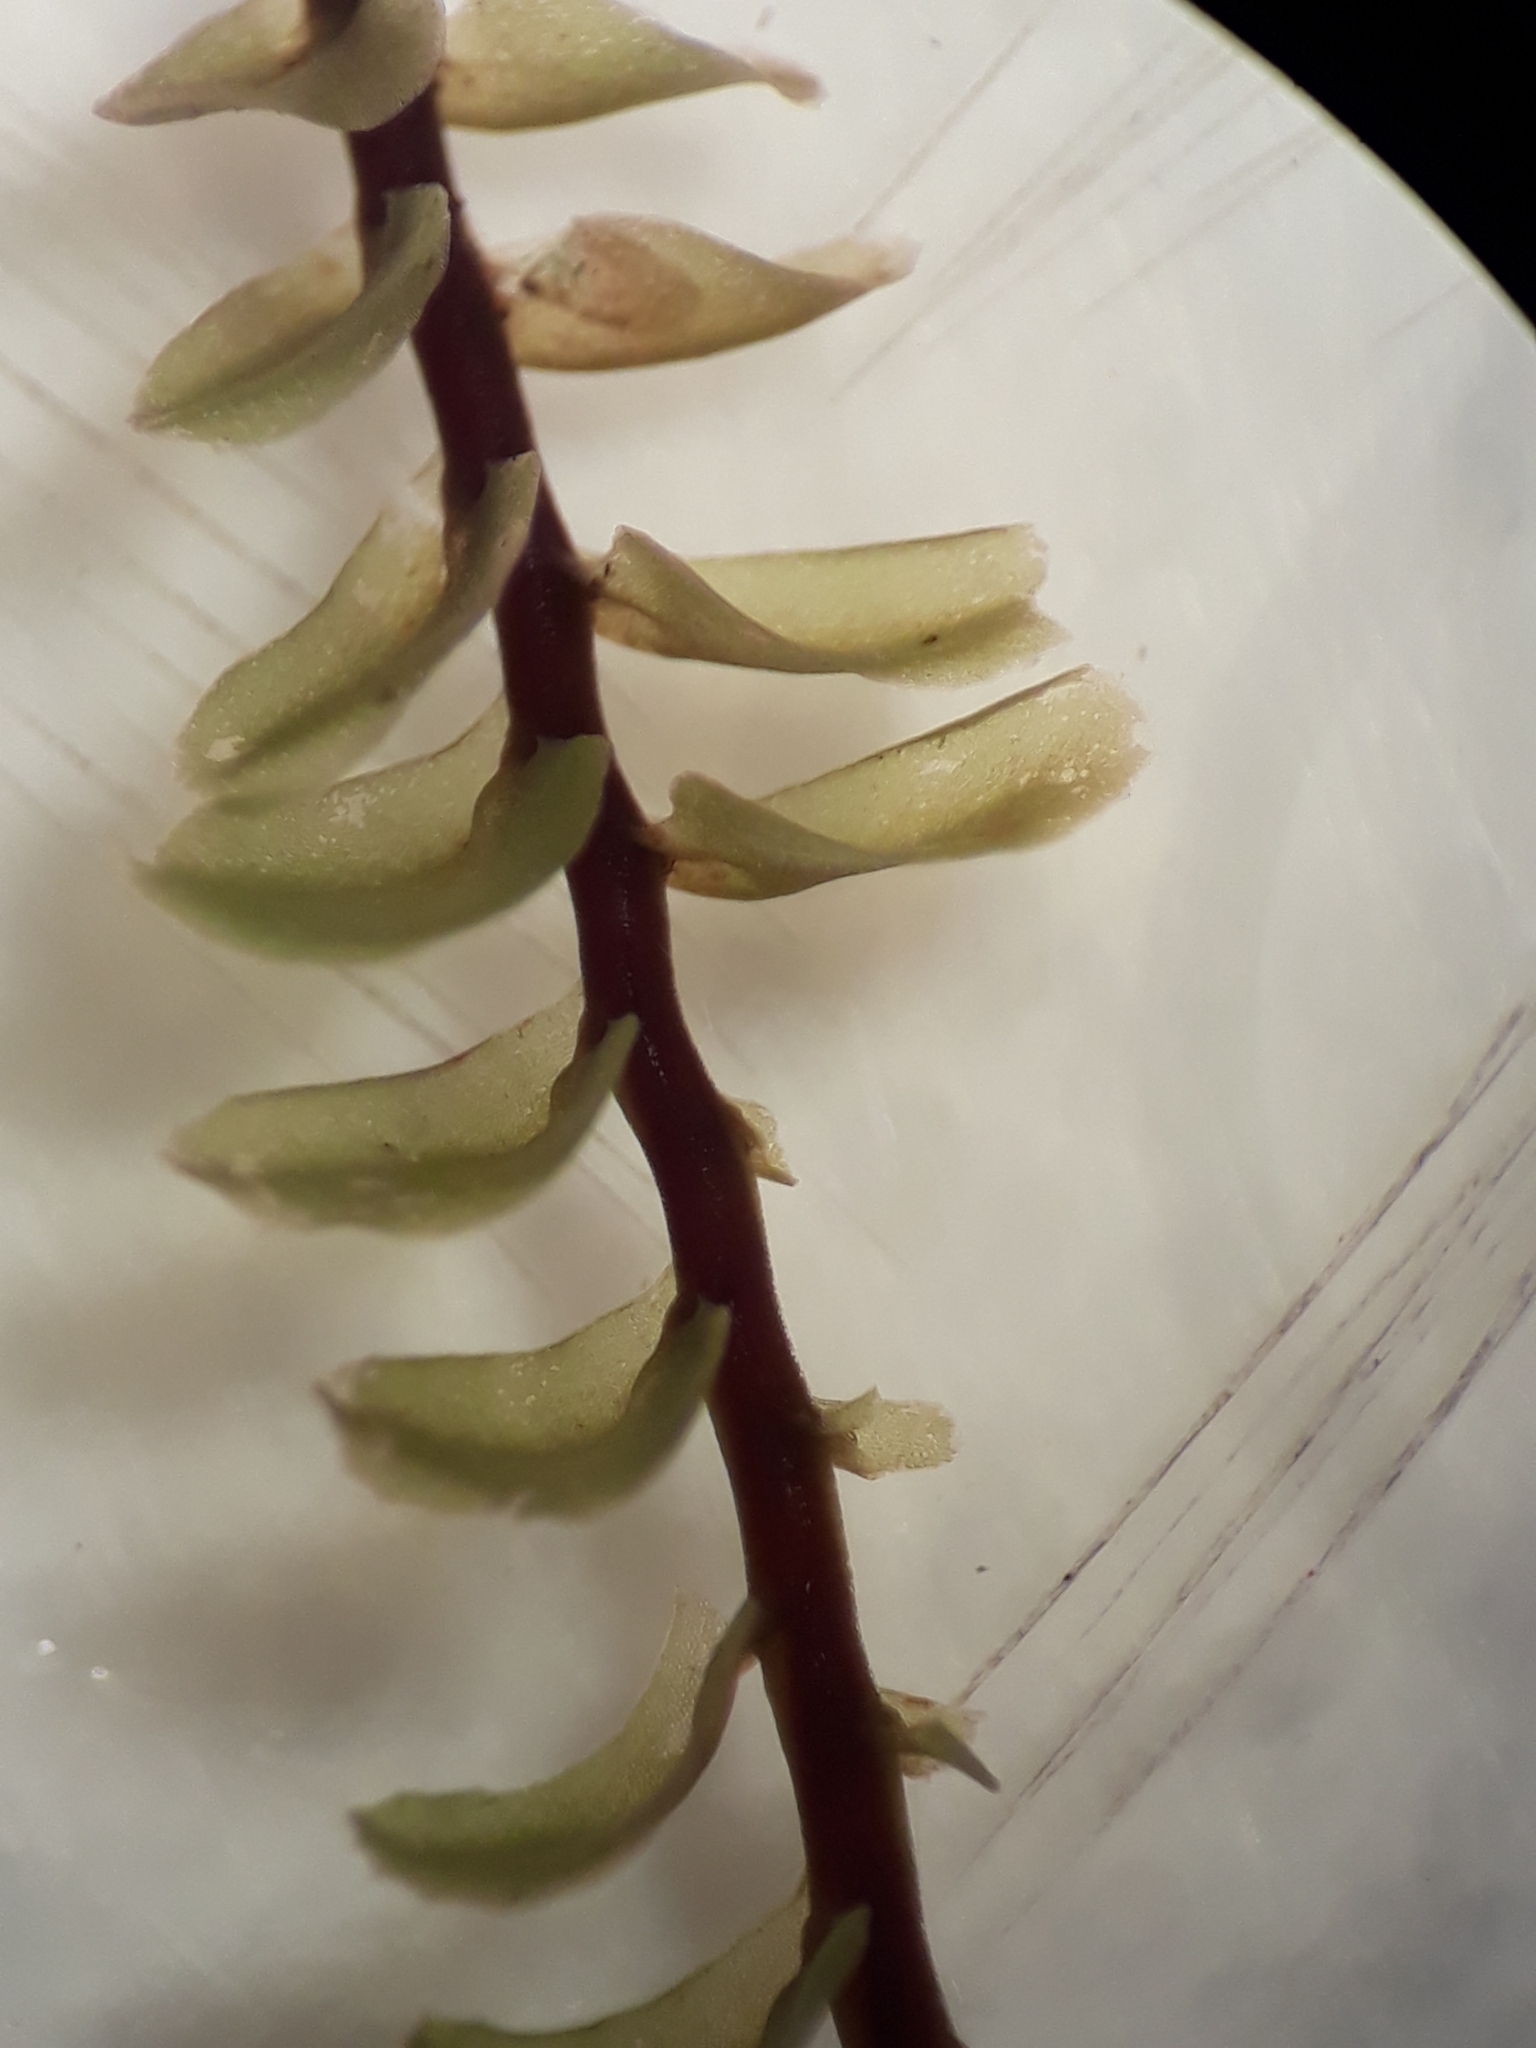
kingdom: Plantae
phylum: Marchantiophyta
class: Jungermanniopsida
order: Jungermanniales
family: Plagiochilaceae
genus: Plagiochila
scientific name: Plagiochila gregaria
